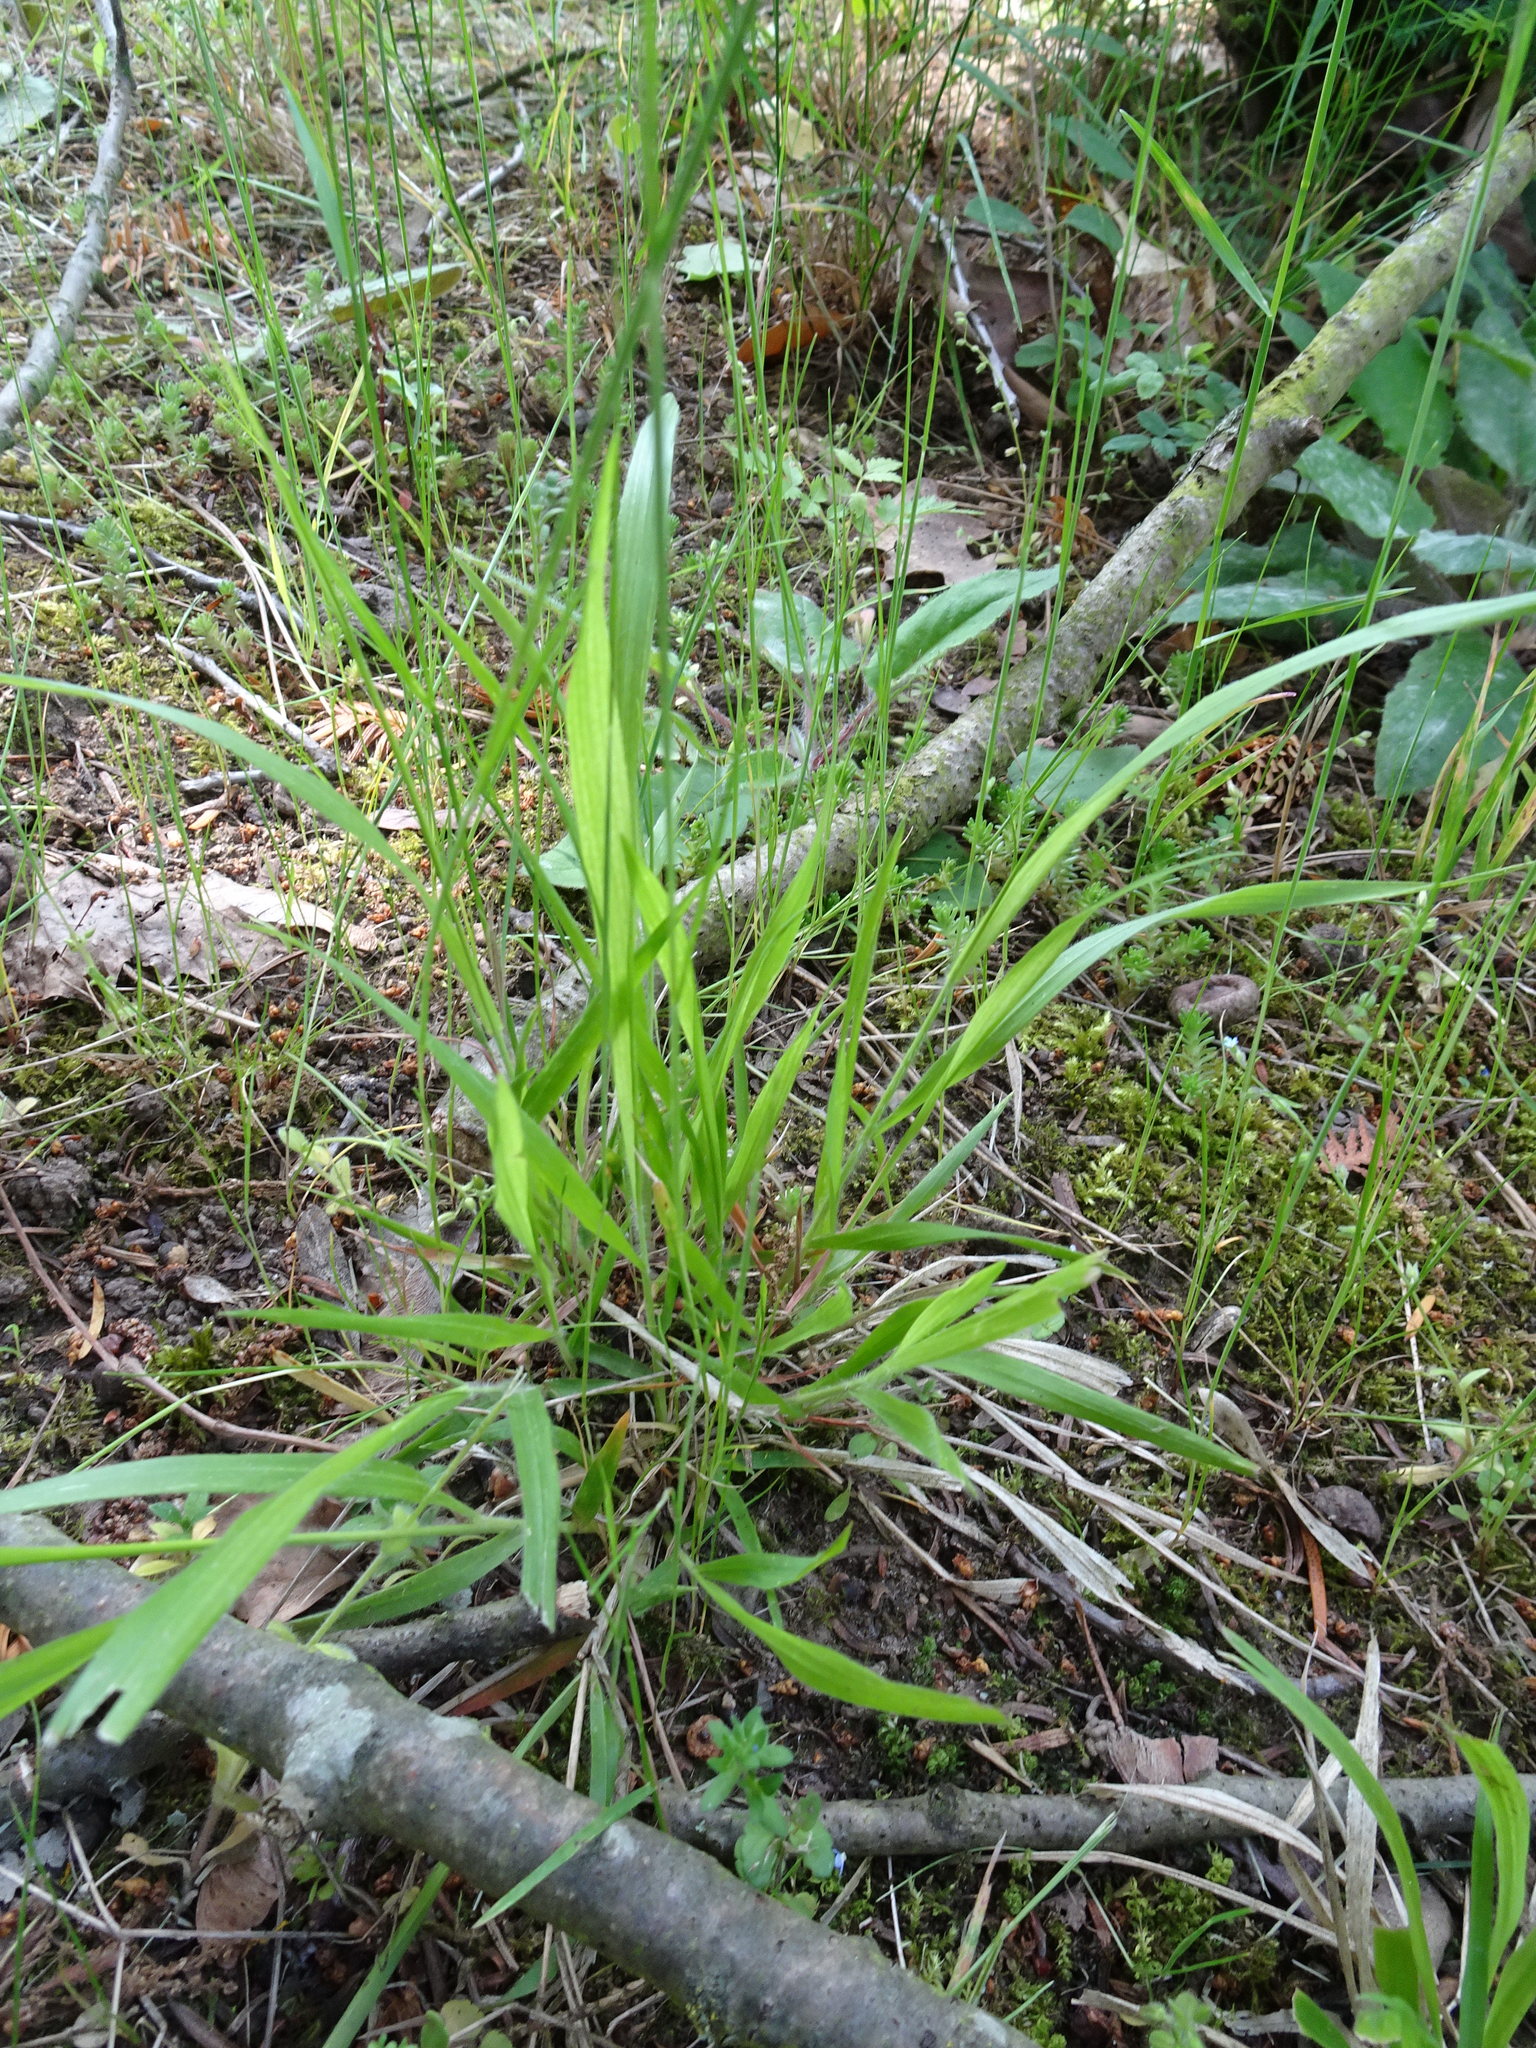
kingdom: Plantae
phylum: Tracheophyta
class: Liliopsida
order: Poales
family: Poaceae
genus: Brachypodium
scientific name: Brachypodium sylvaticum
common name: False-brome
